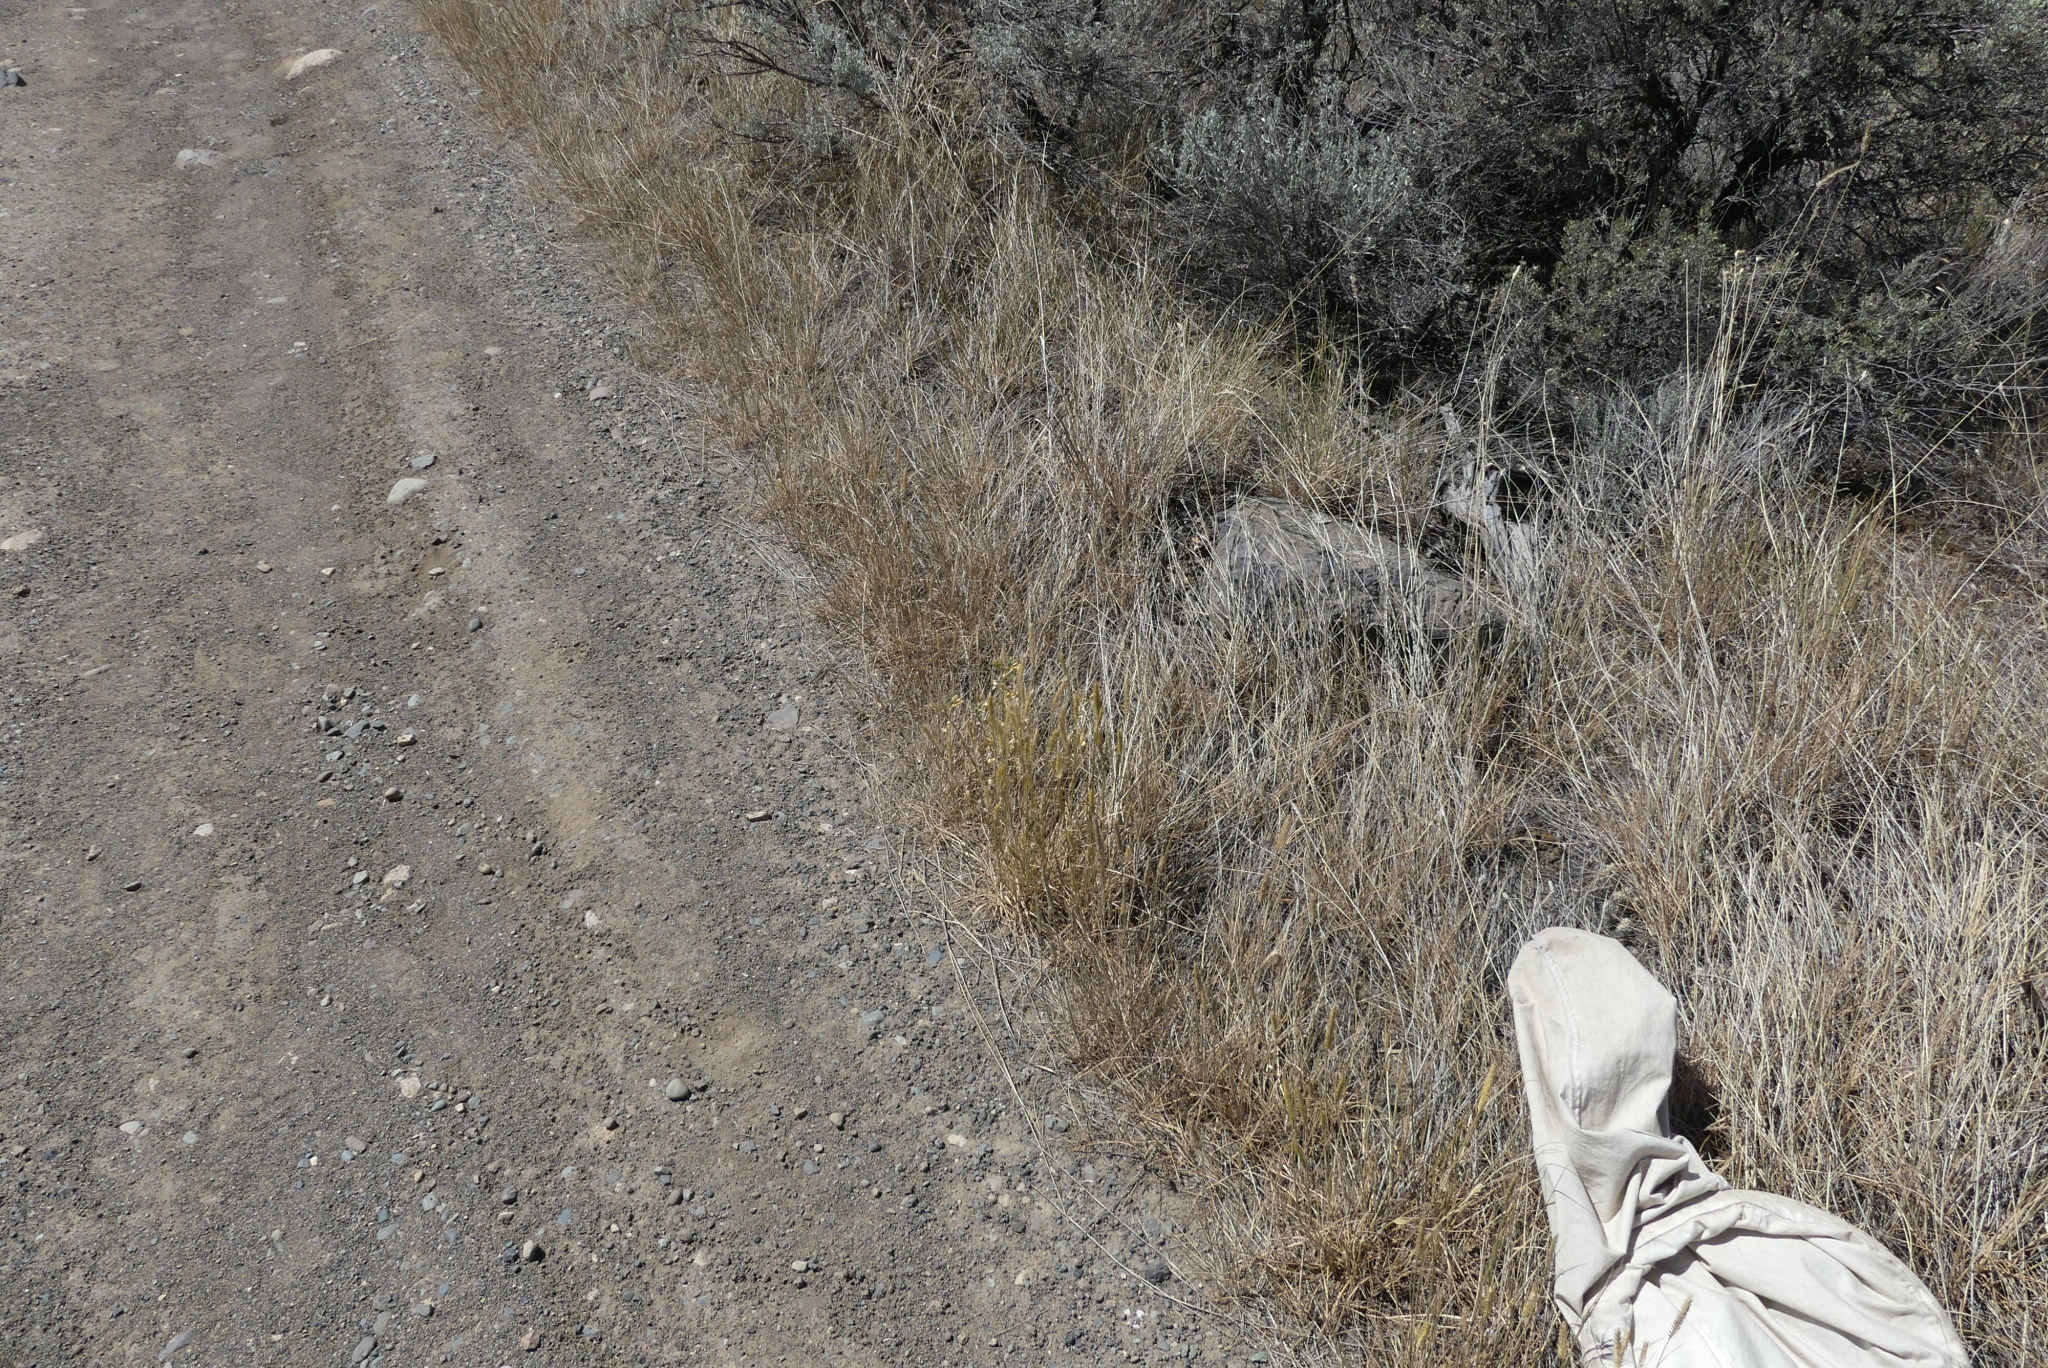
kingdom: Plantae
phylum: Tracheophyta
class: Liliopsida
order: Poales
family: Poaceae
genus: Agropyron
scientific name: Agropyron cristatum
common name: Crested wheatgrass
